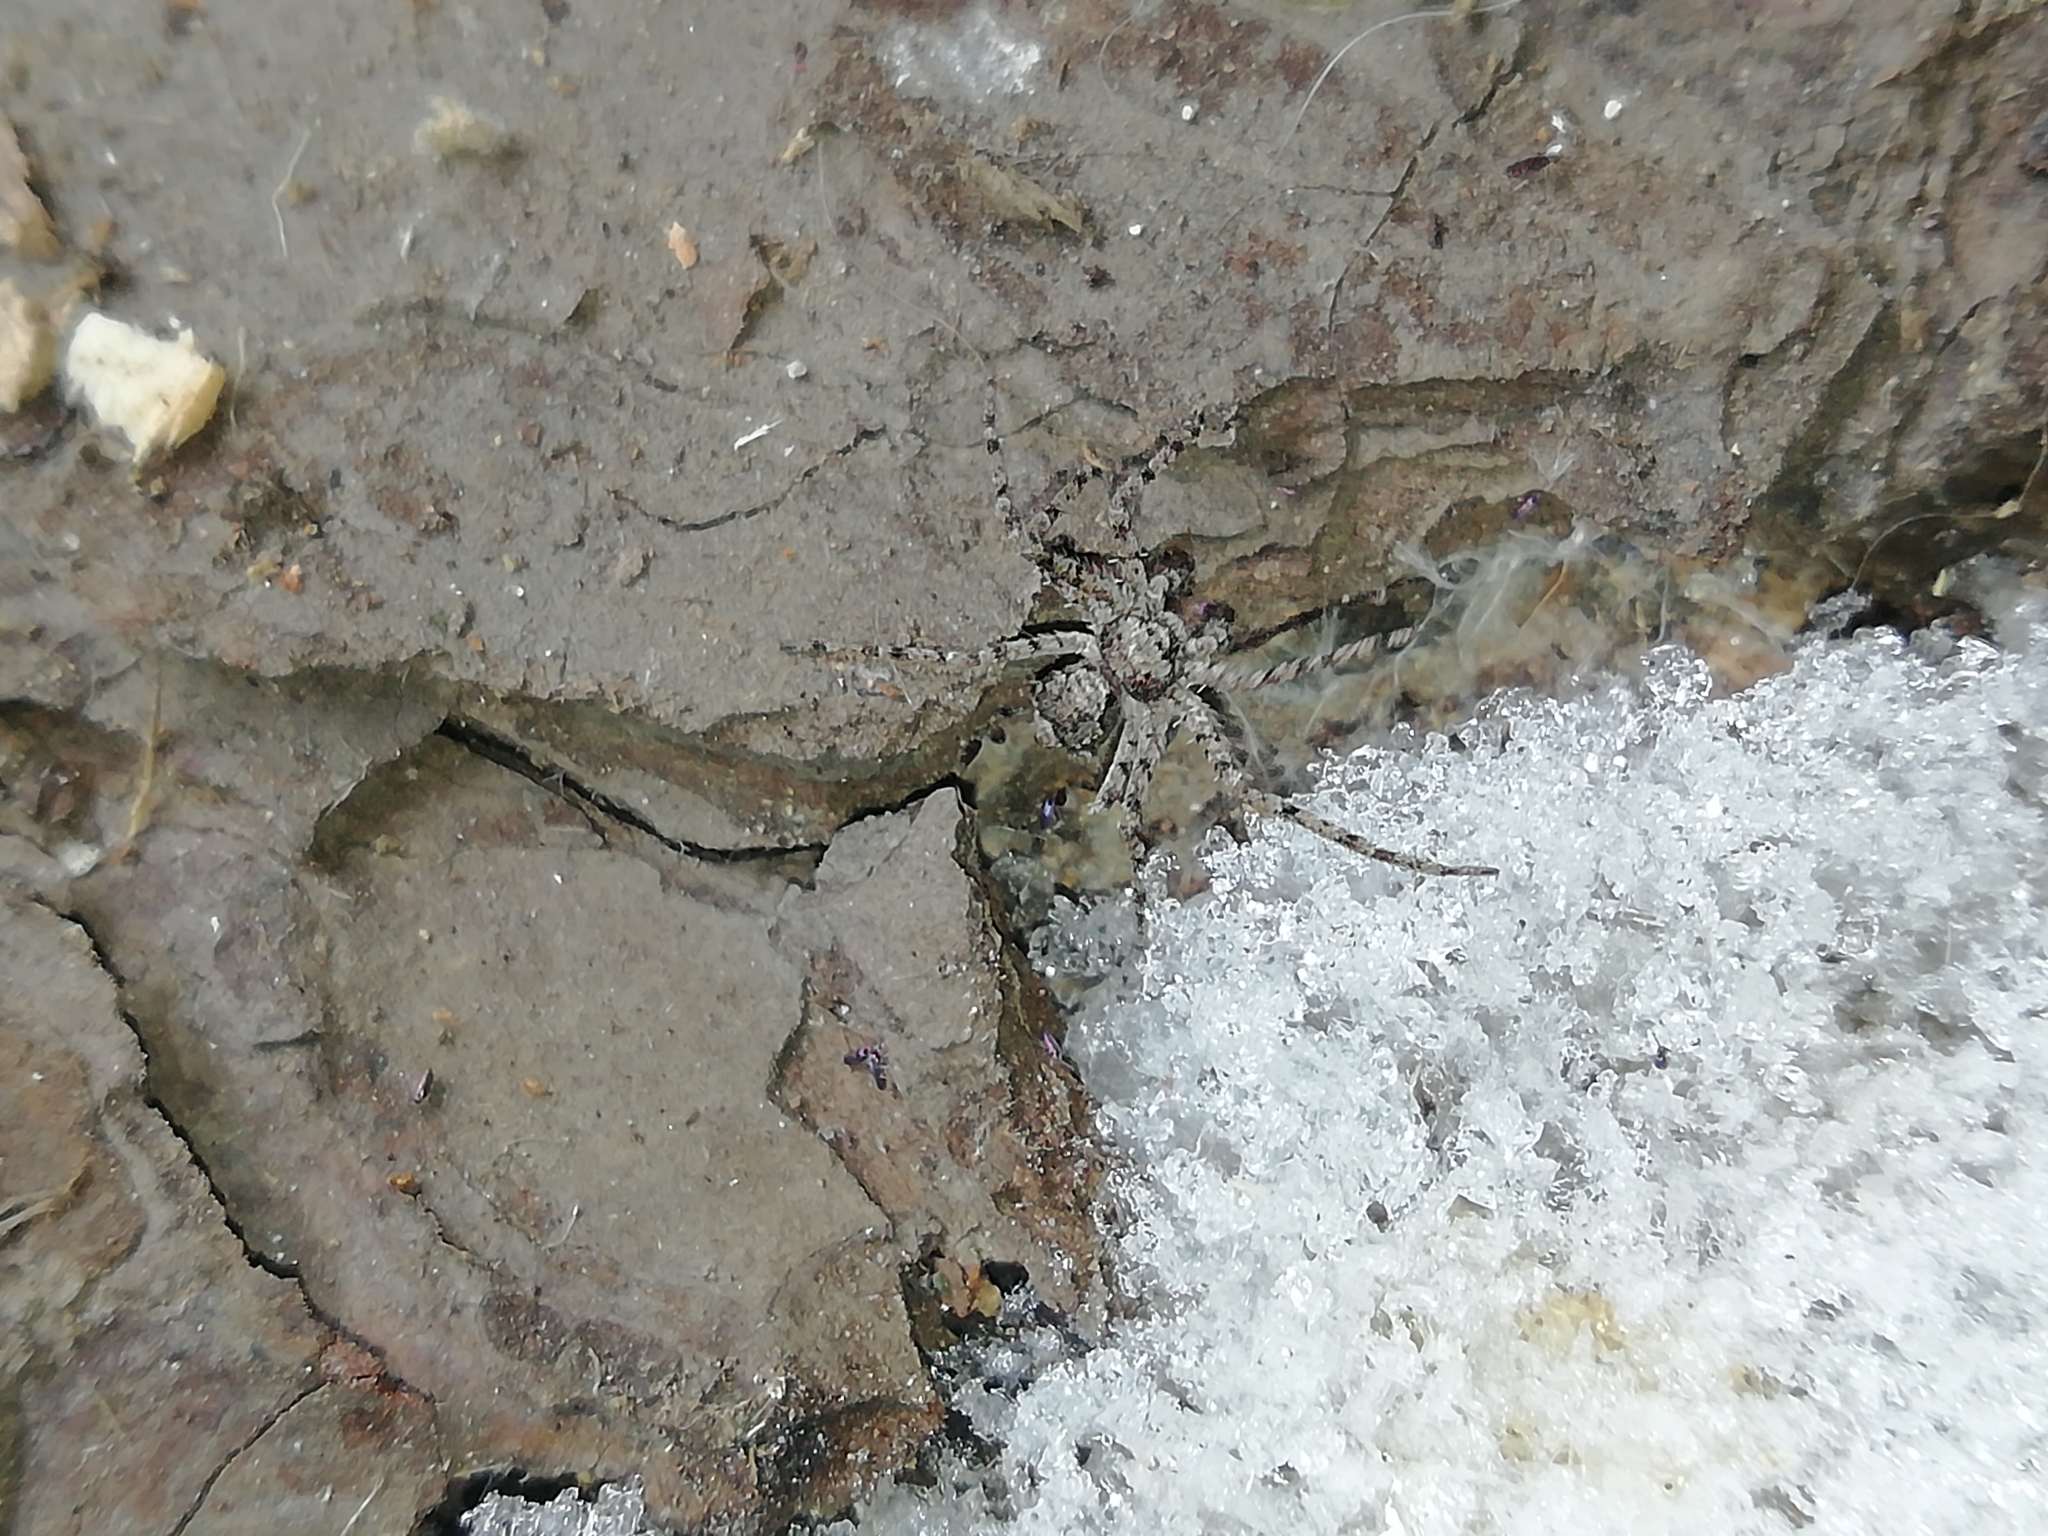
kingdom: Animalia
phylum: Arthropoda
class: Arachnida
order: Araneae
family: Philodromidae
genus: Philodromus
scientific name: Philodromus poecilus
